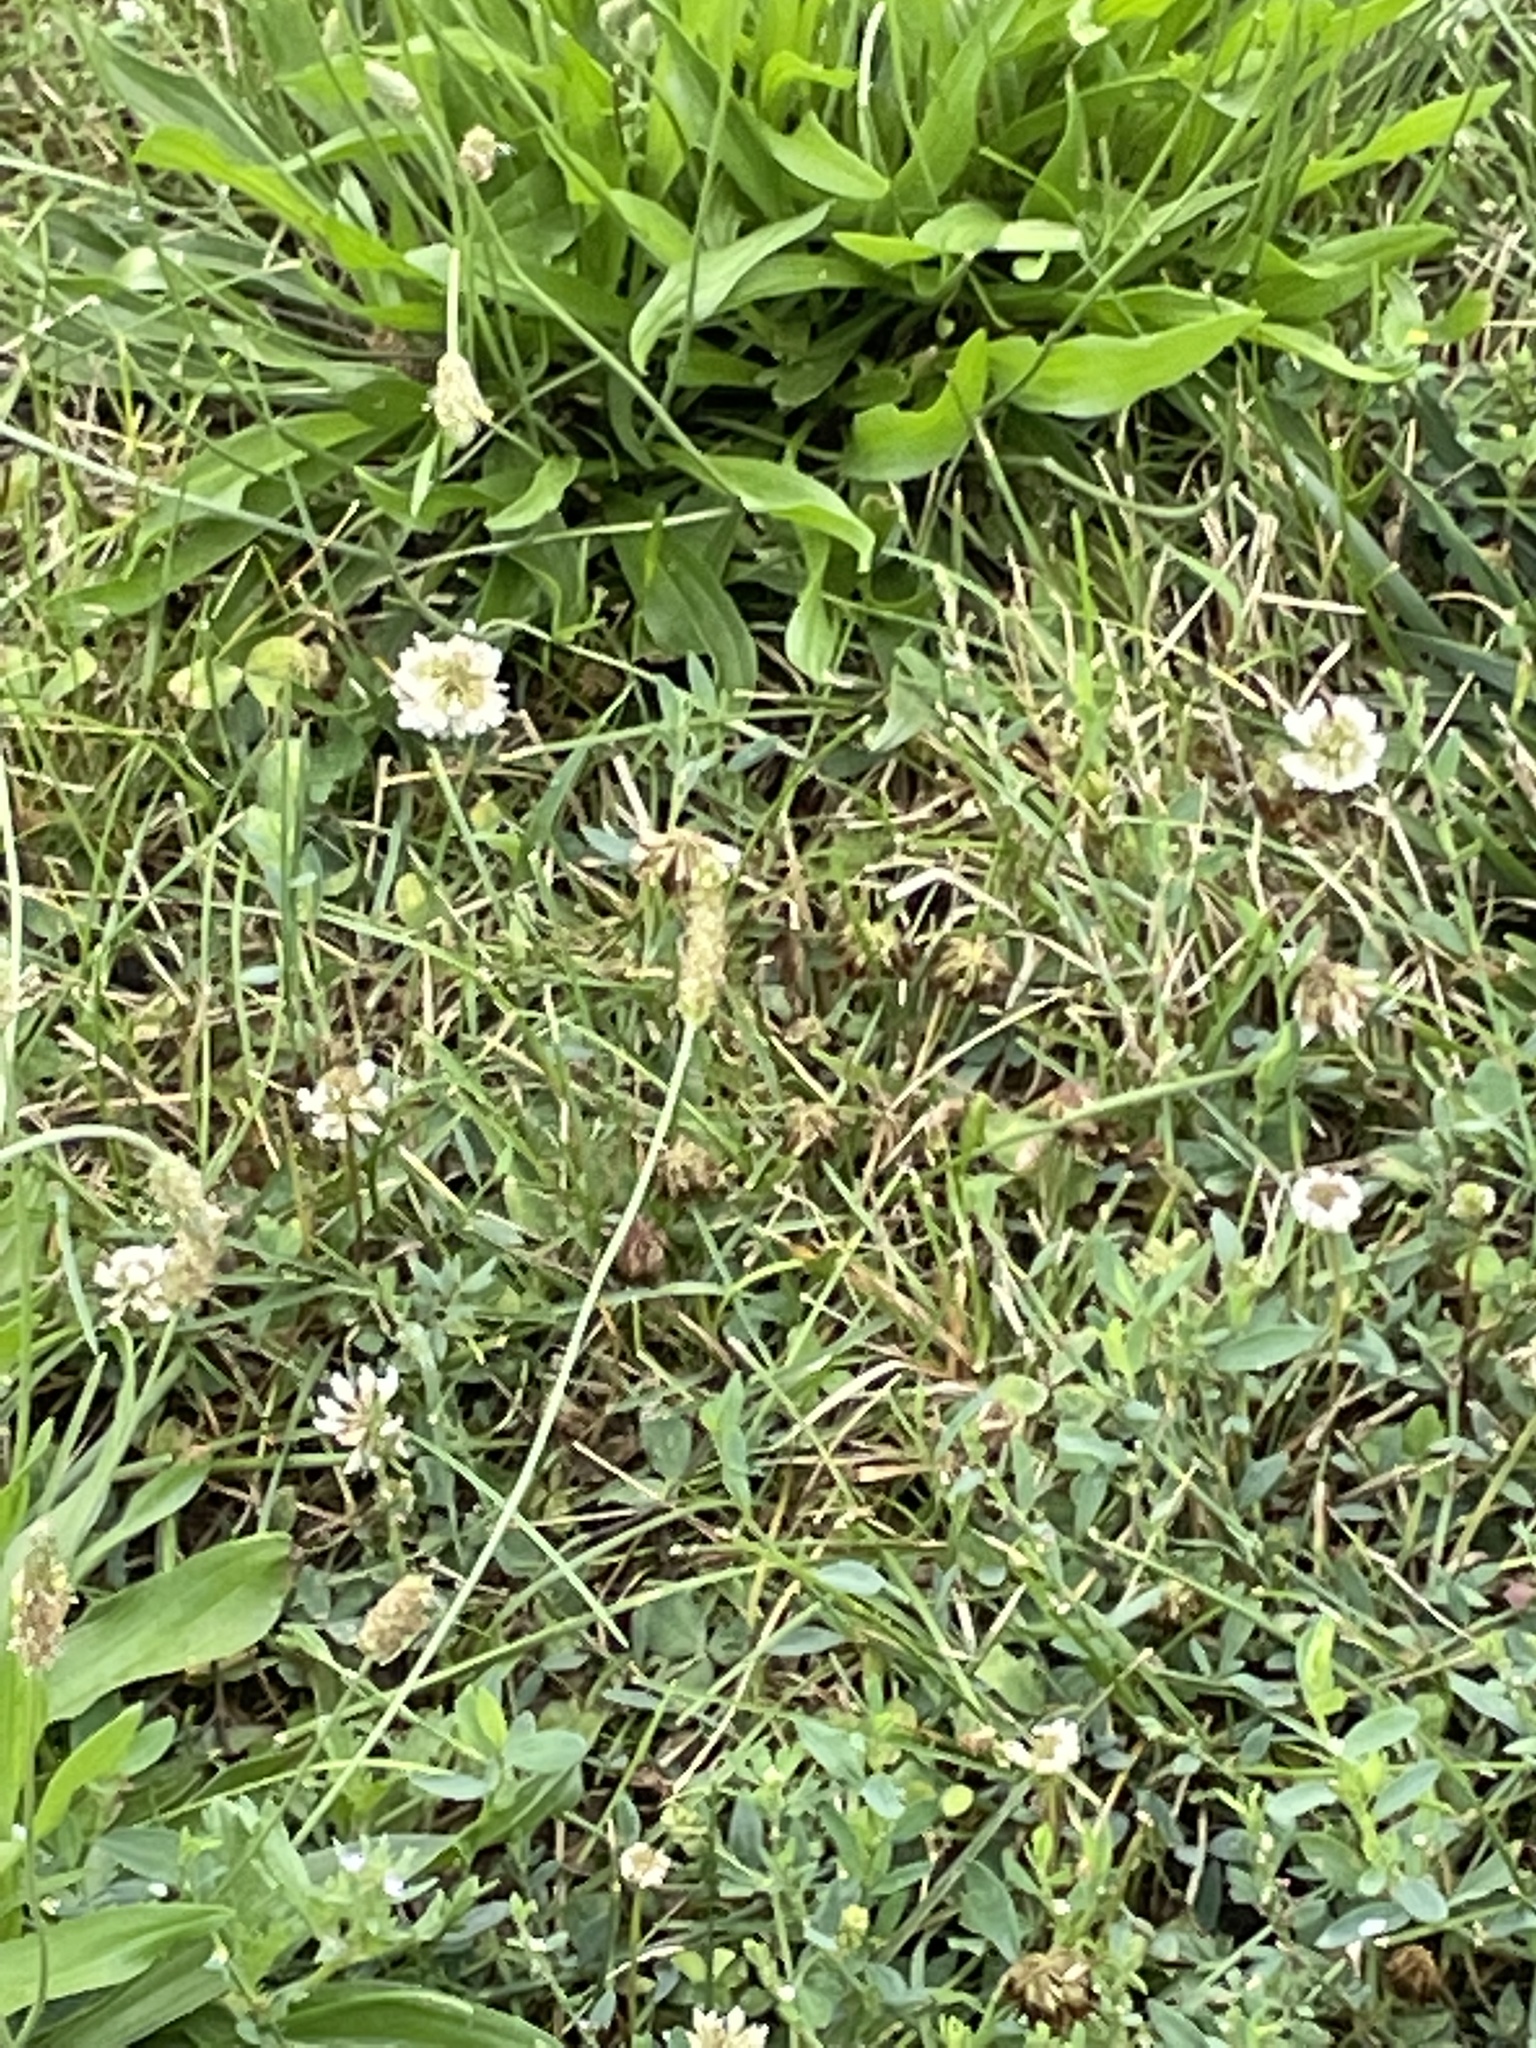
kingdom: Plantae
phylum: Tracheophyta
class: Magnoliopsida
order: Fabales
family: Fabaceae
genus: Trifolium
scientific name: Trifolium repens
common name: White clover
